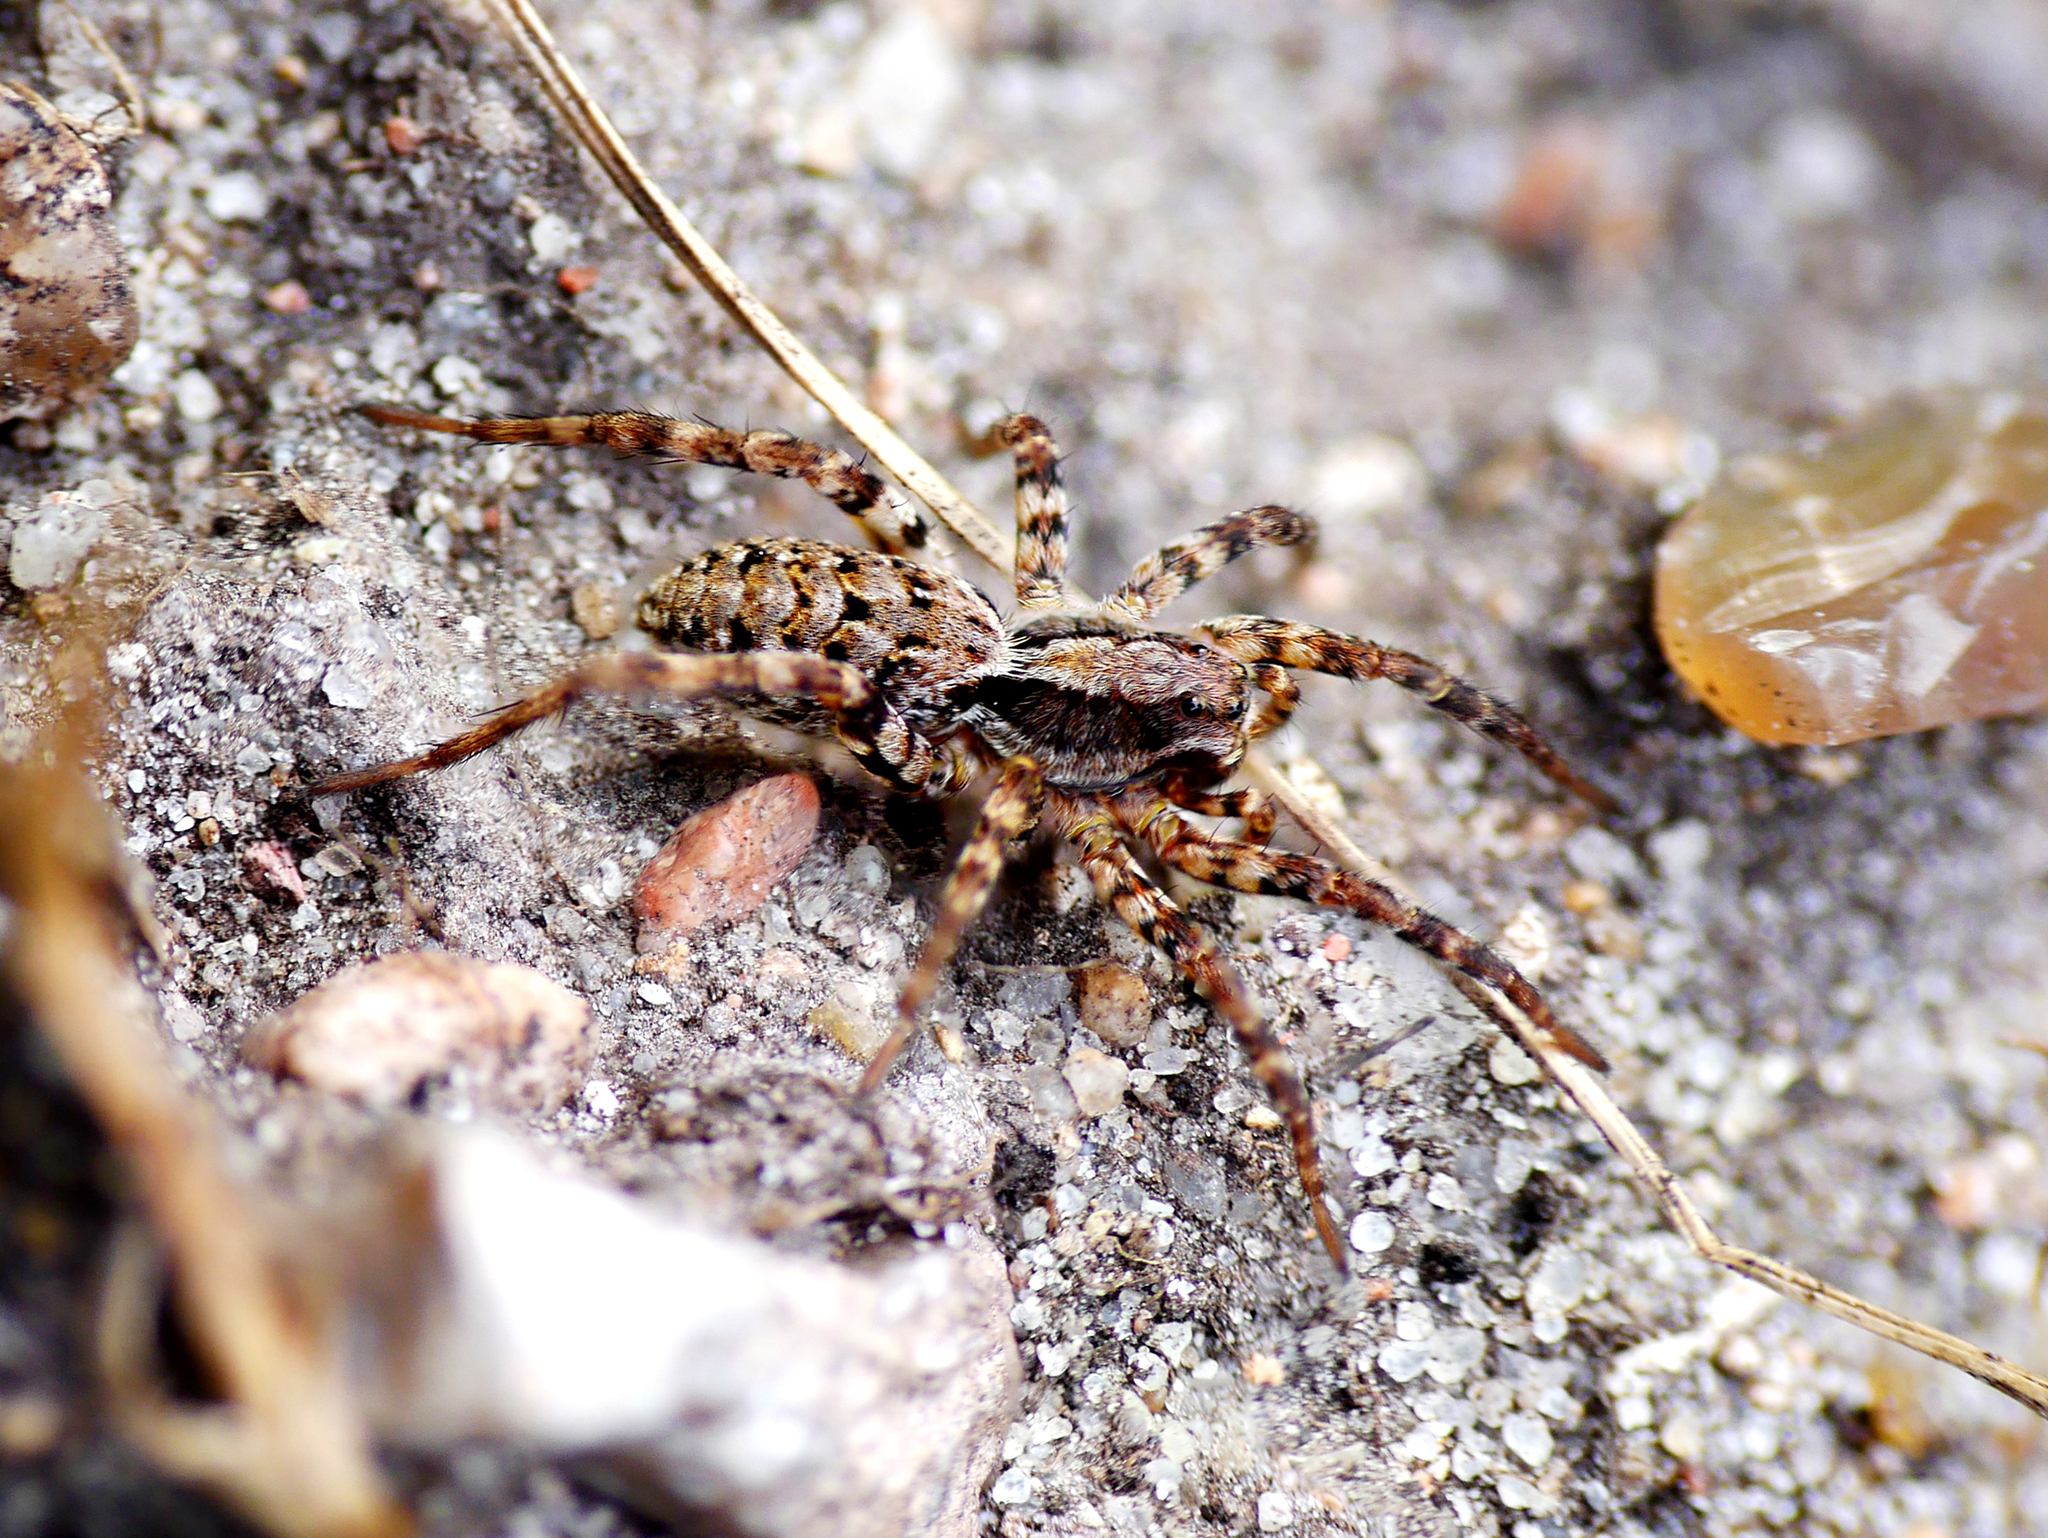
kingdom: Animalia
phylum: Arthropoda
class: Arachnida
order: Araneae
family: Lycosidae
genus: Alopecosa
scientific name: Alopecosa barbipes
